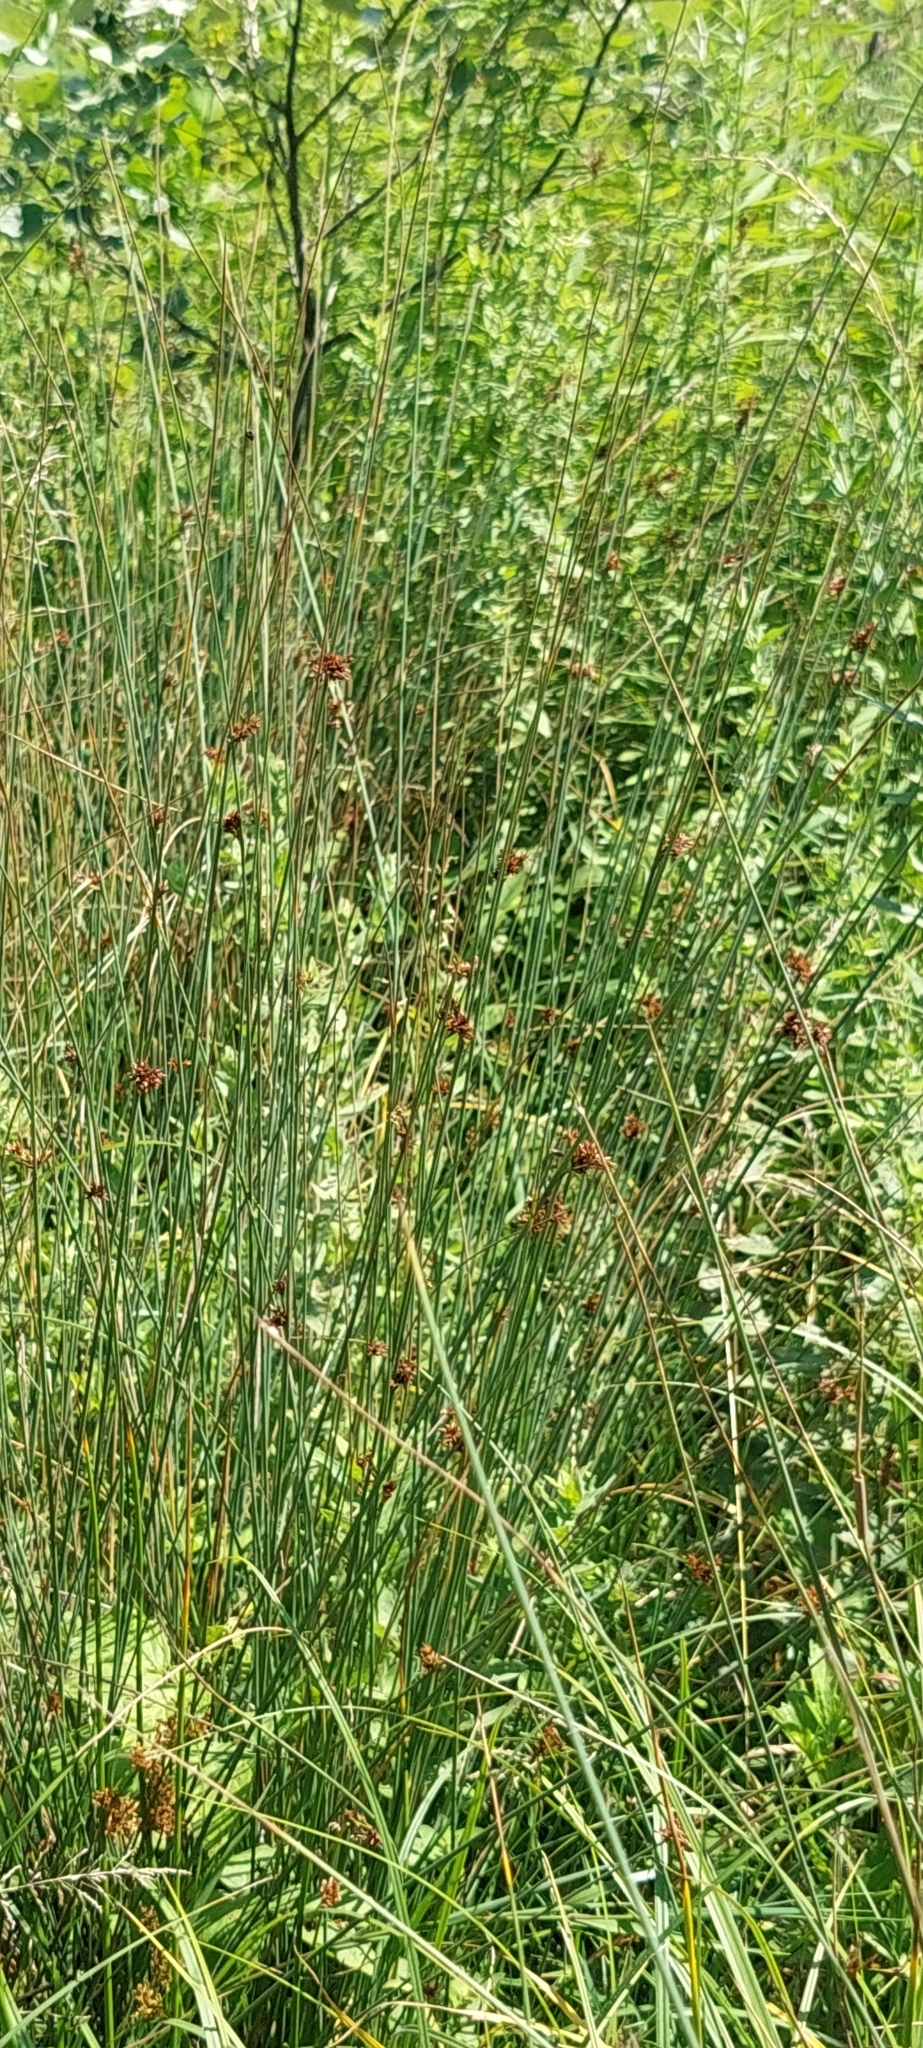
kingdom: Plantae
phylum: Tracheophyta
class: Liliopsida
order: Poales
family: Juncaceae
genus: Juncus
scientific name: Juncus inflexus
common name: Hard rush
